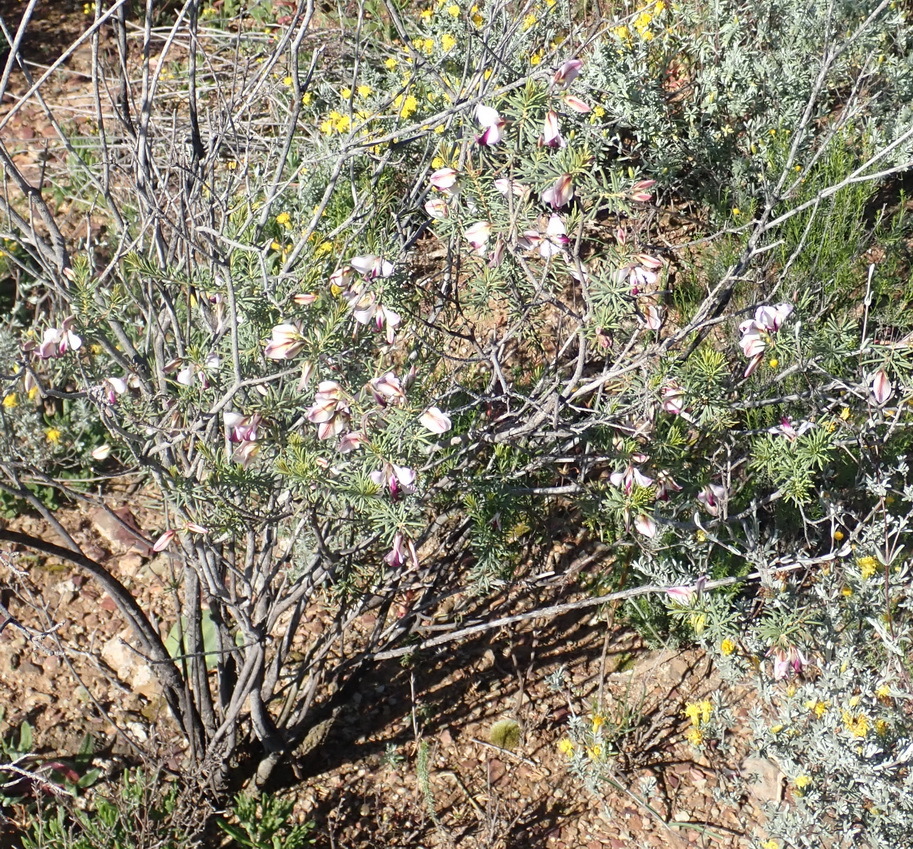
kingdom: Plantae
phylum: Tracheophyta
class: Magnoliopsida
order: Fabales
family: Polygalaceae
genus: Polygala
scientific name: Polygala myrtifolia
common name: Myrtle-leaf milkwort
